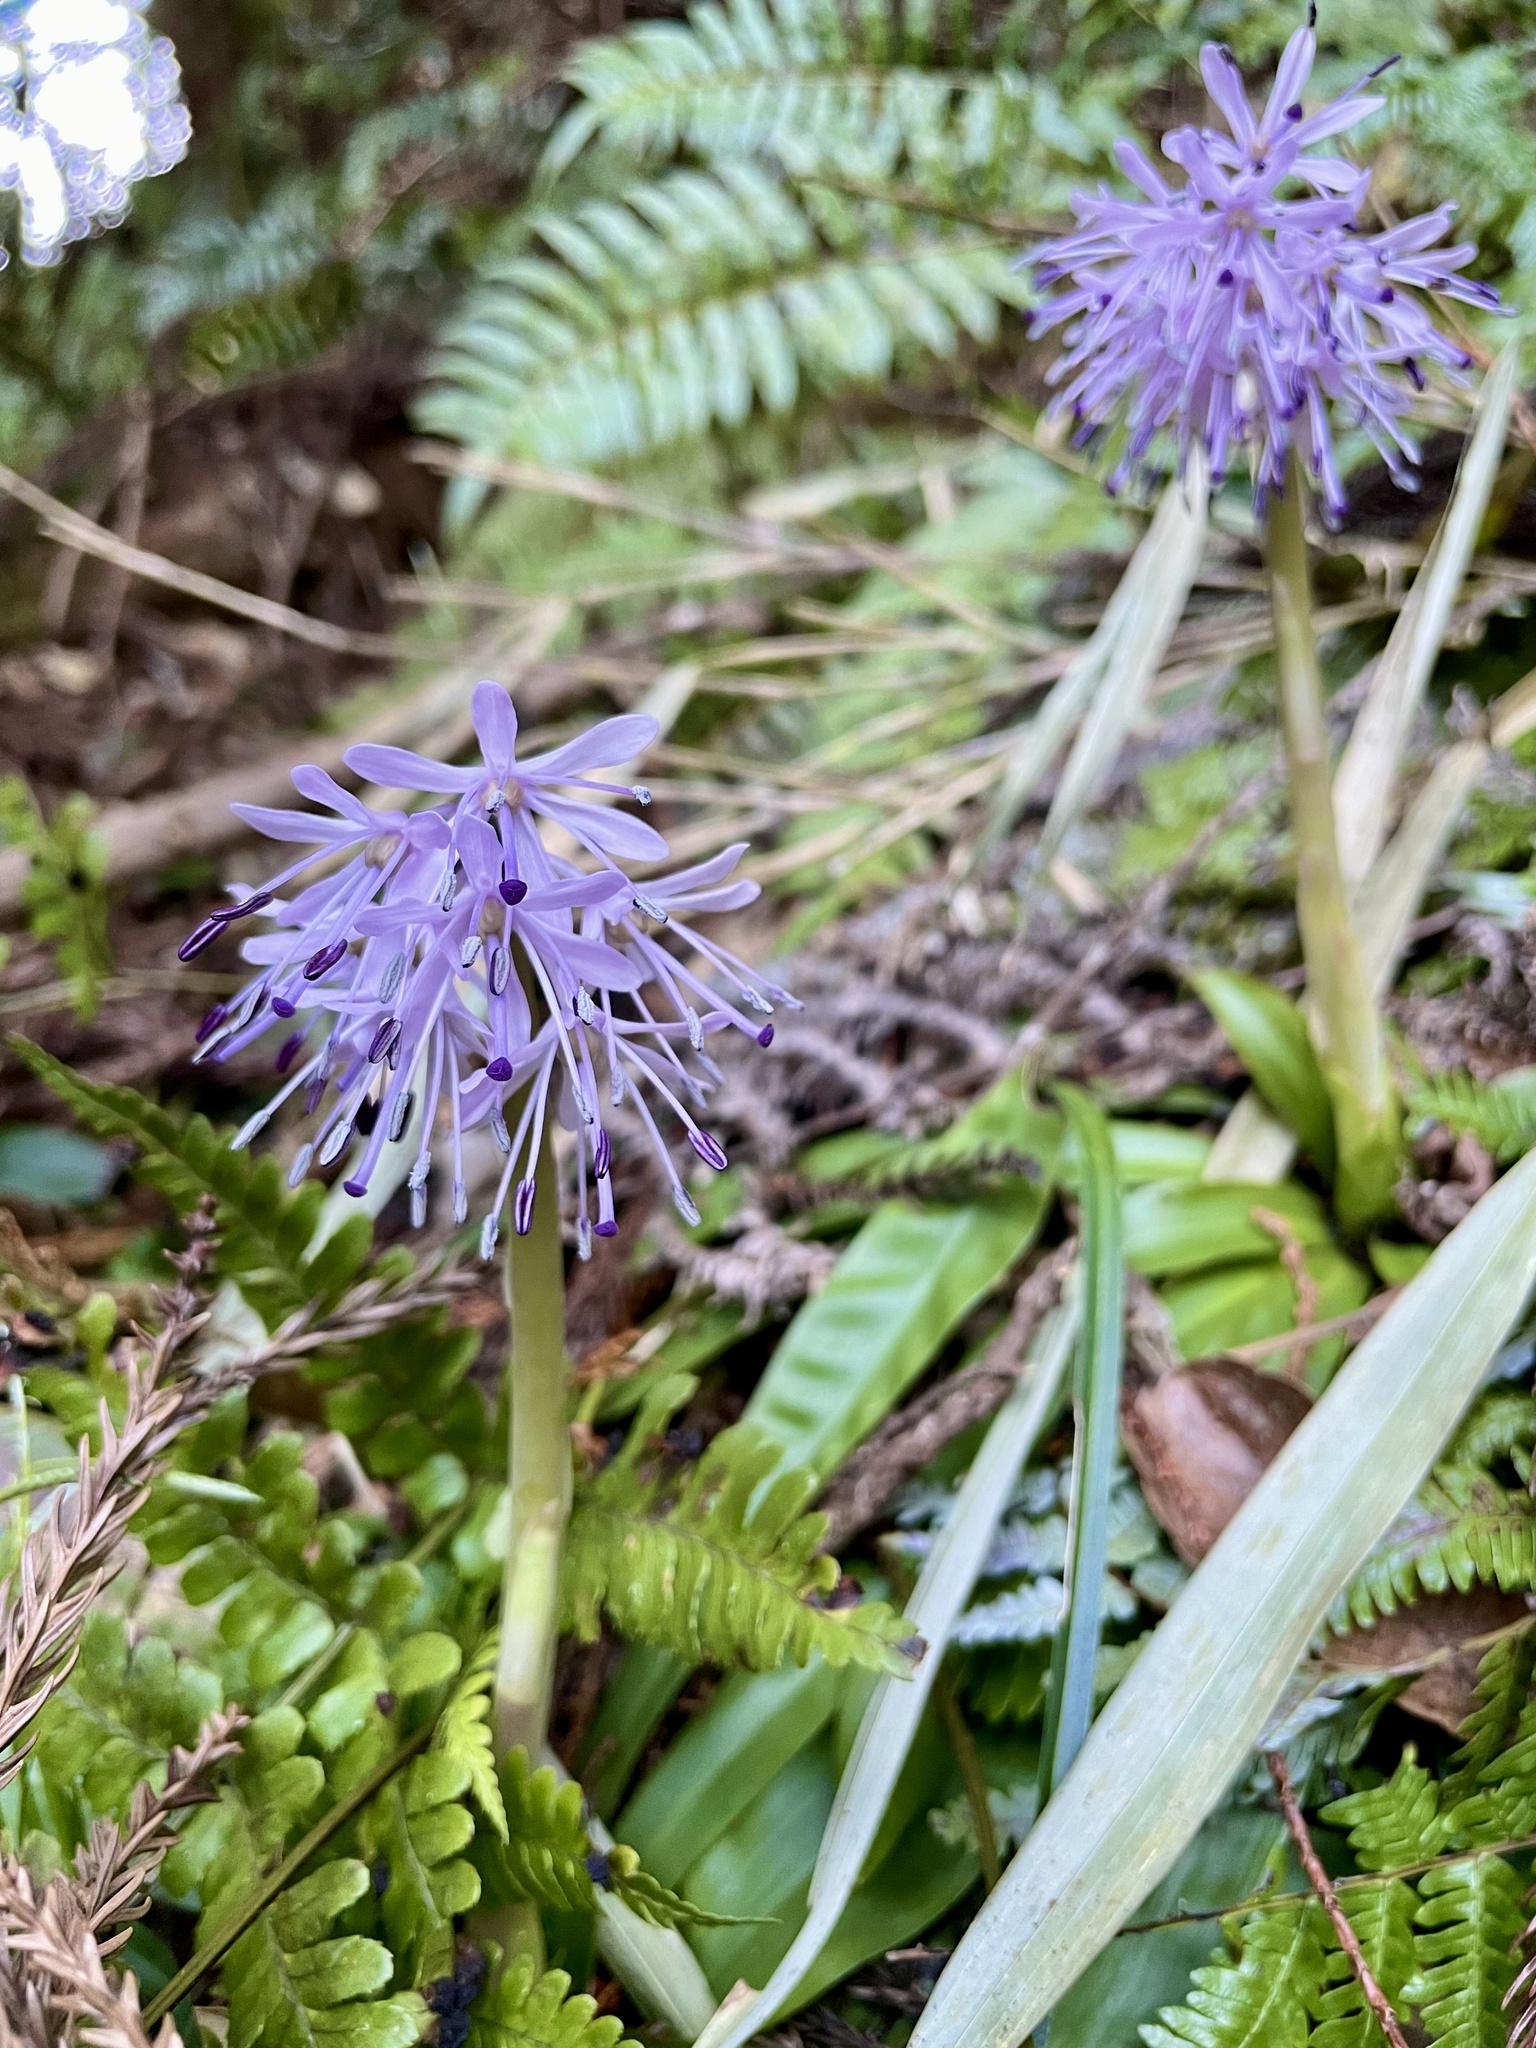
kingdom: Plantae
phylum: Tracheophyta
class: Liliopsida
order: Liliales
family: Melanthiaceae
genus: Helonias
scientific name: Helonias orientalis
